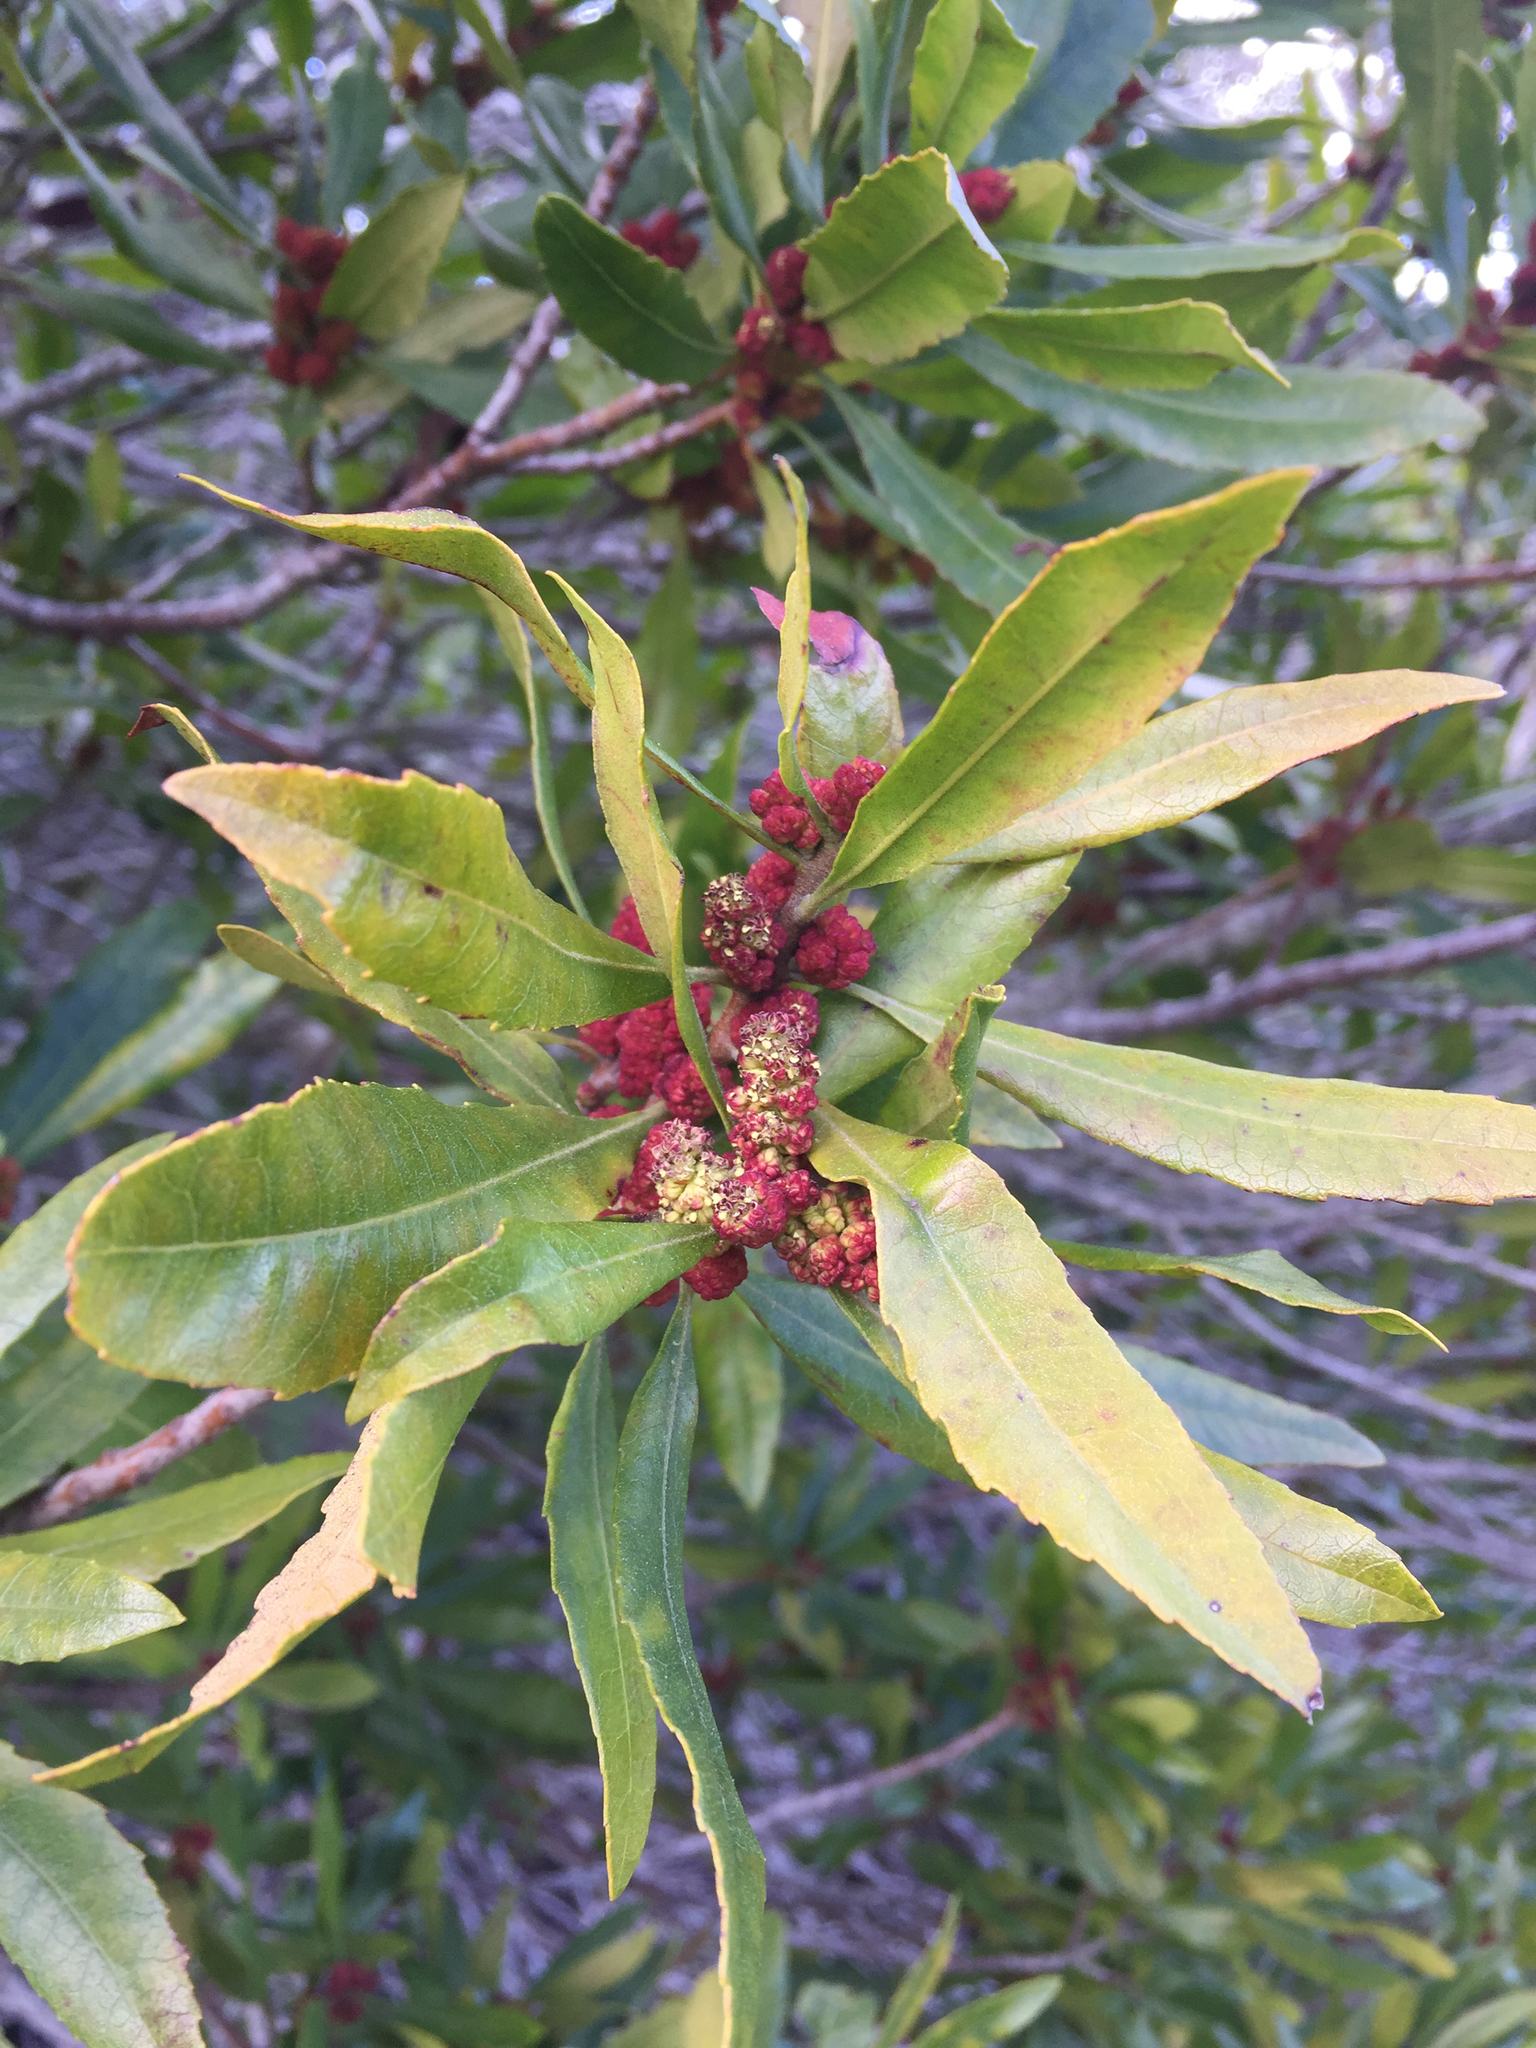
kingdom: Plantae
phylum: Tracheophyta
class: Magnoliopsida
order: Fagales
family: Myricaceae
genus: Morella
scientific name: Morella californica
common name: California wax-myrtle
